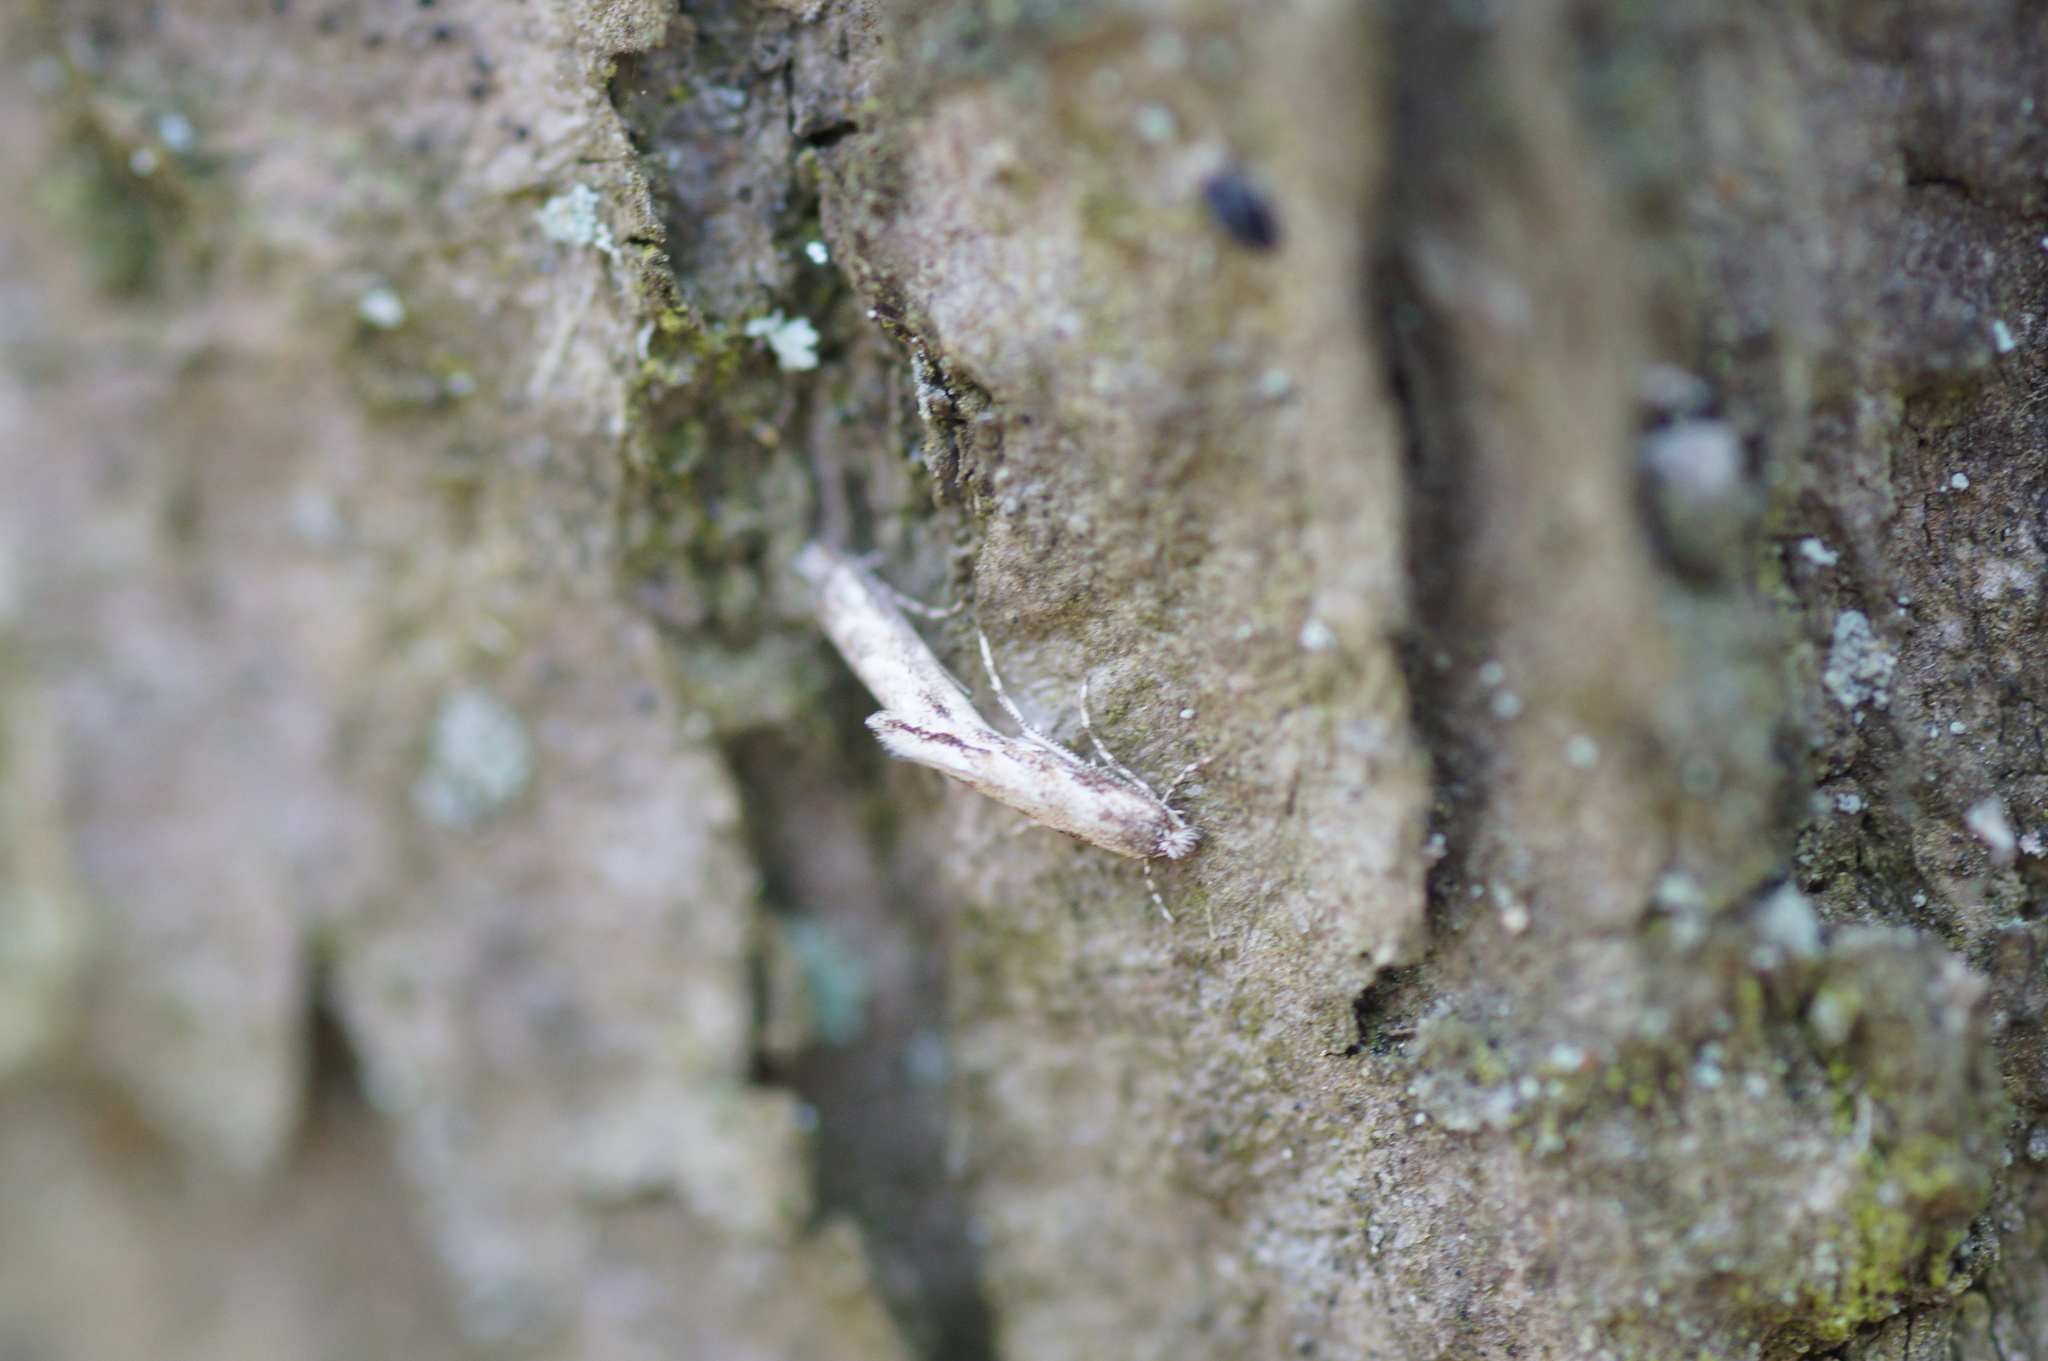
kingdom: Animalia
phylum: Arthropoda
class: Insecta
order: Lepidoptera
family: Gracillariidae
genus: Phyllonorycter
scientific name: Phyllonorycter issikii
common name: Linden midget
